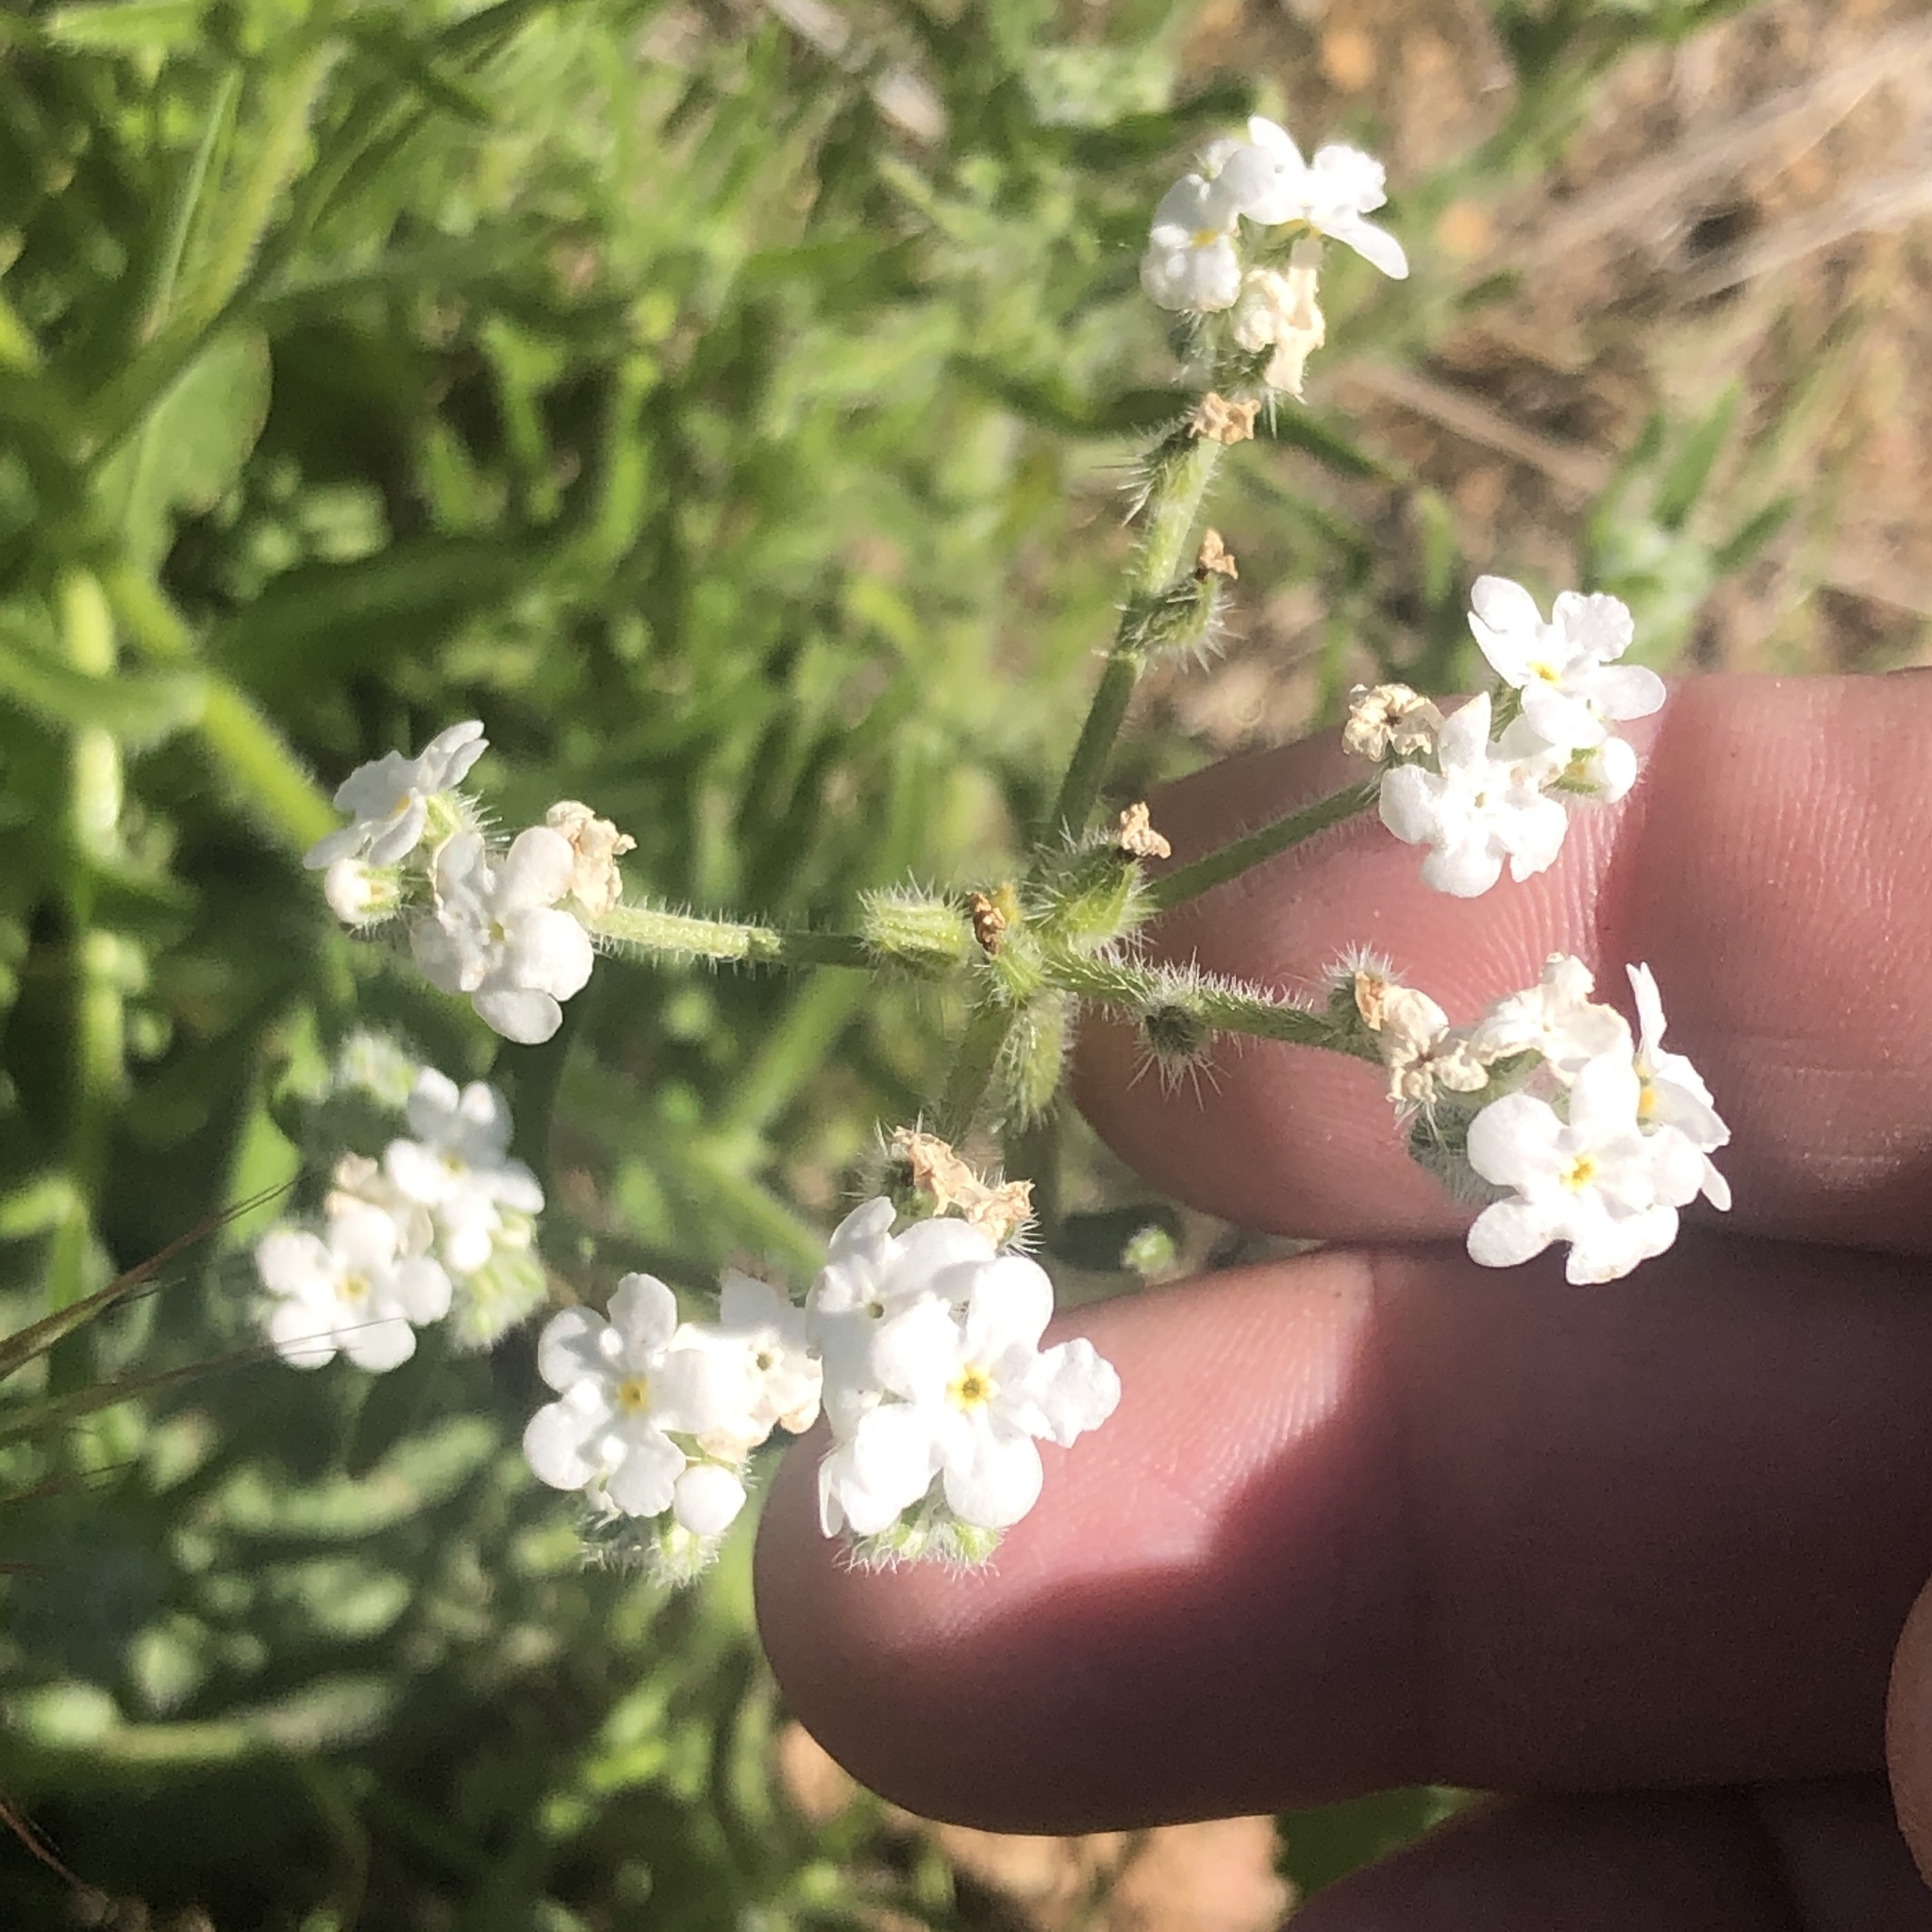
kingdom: Plantae
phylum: Tracheophyta
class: Magnoliopsida
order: Boraginales
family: Boraginaceae
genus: Cryptantha
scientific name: Cryptantha intermedia
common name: Clearwater cryptantha
